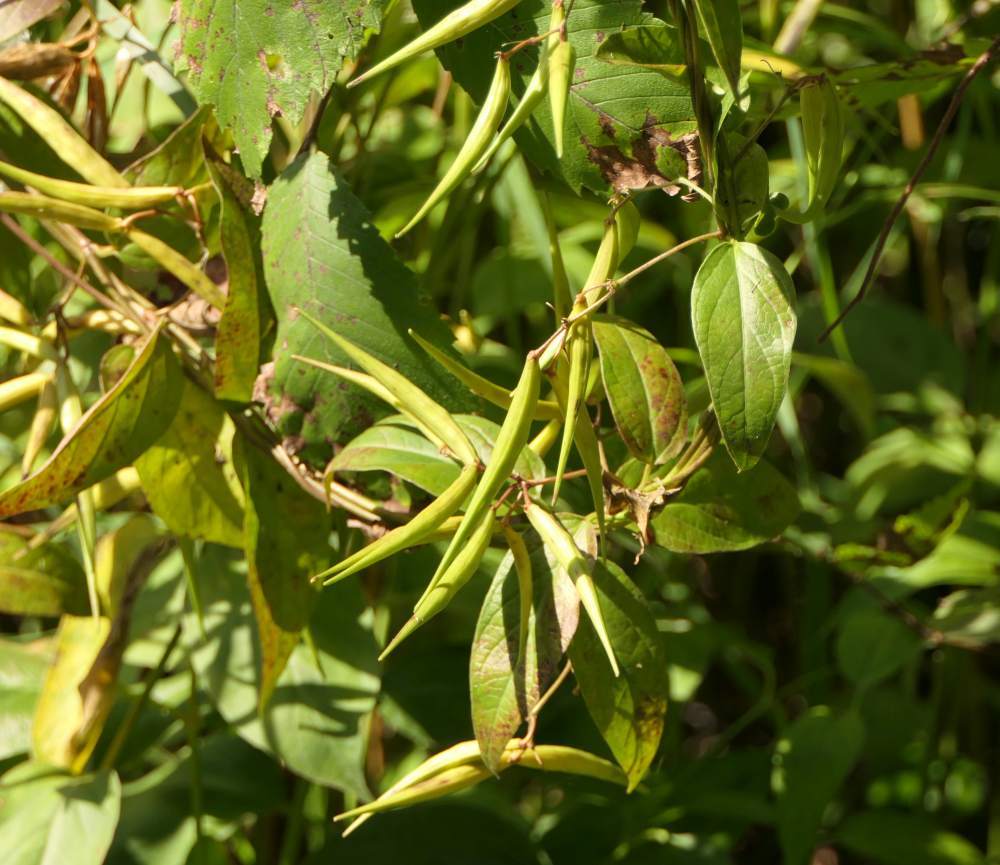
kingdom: Plantae
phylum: Tracheophyta
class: Magnoliopsida
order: Gentianales
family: Apocynaceae
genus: Vincetoxicum
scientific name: Vincetoxicum rossicum
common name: Dog-strangling vine
